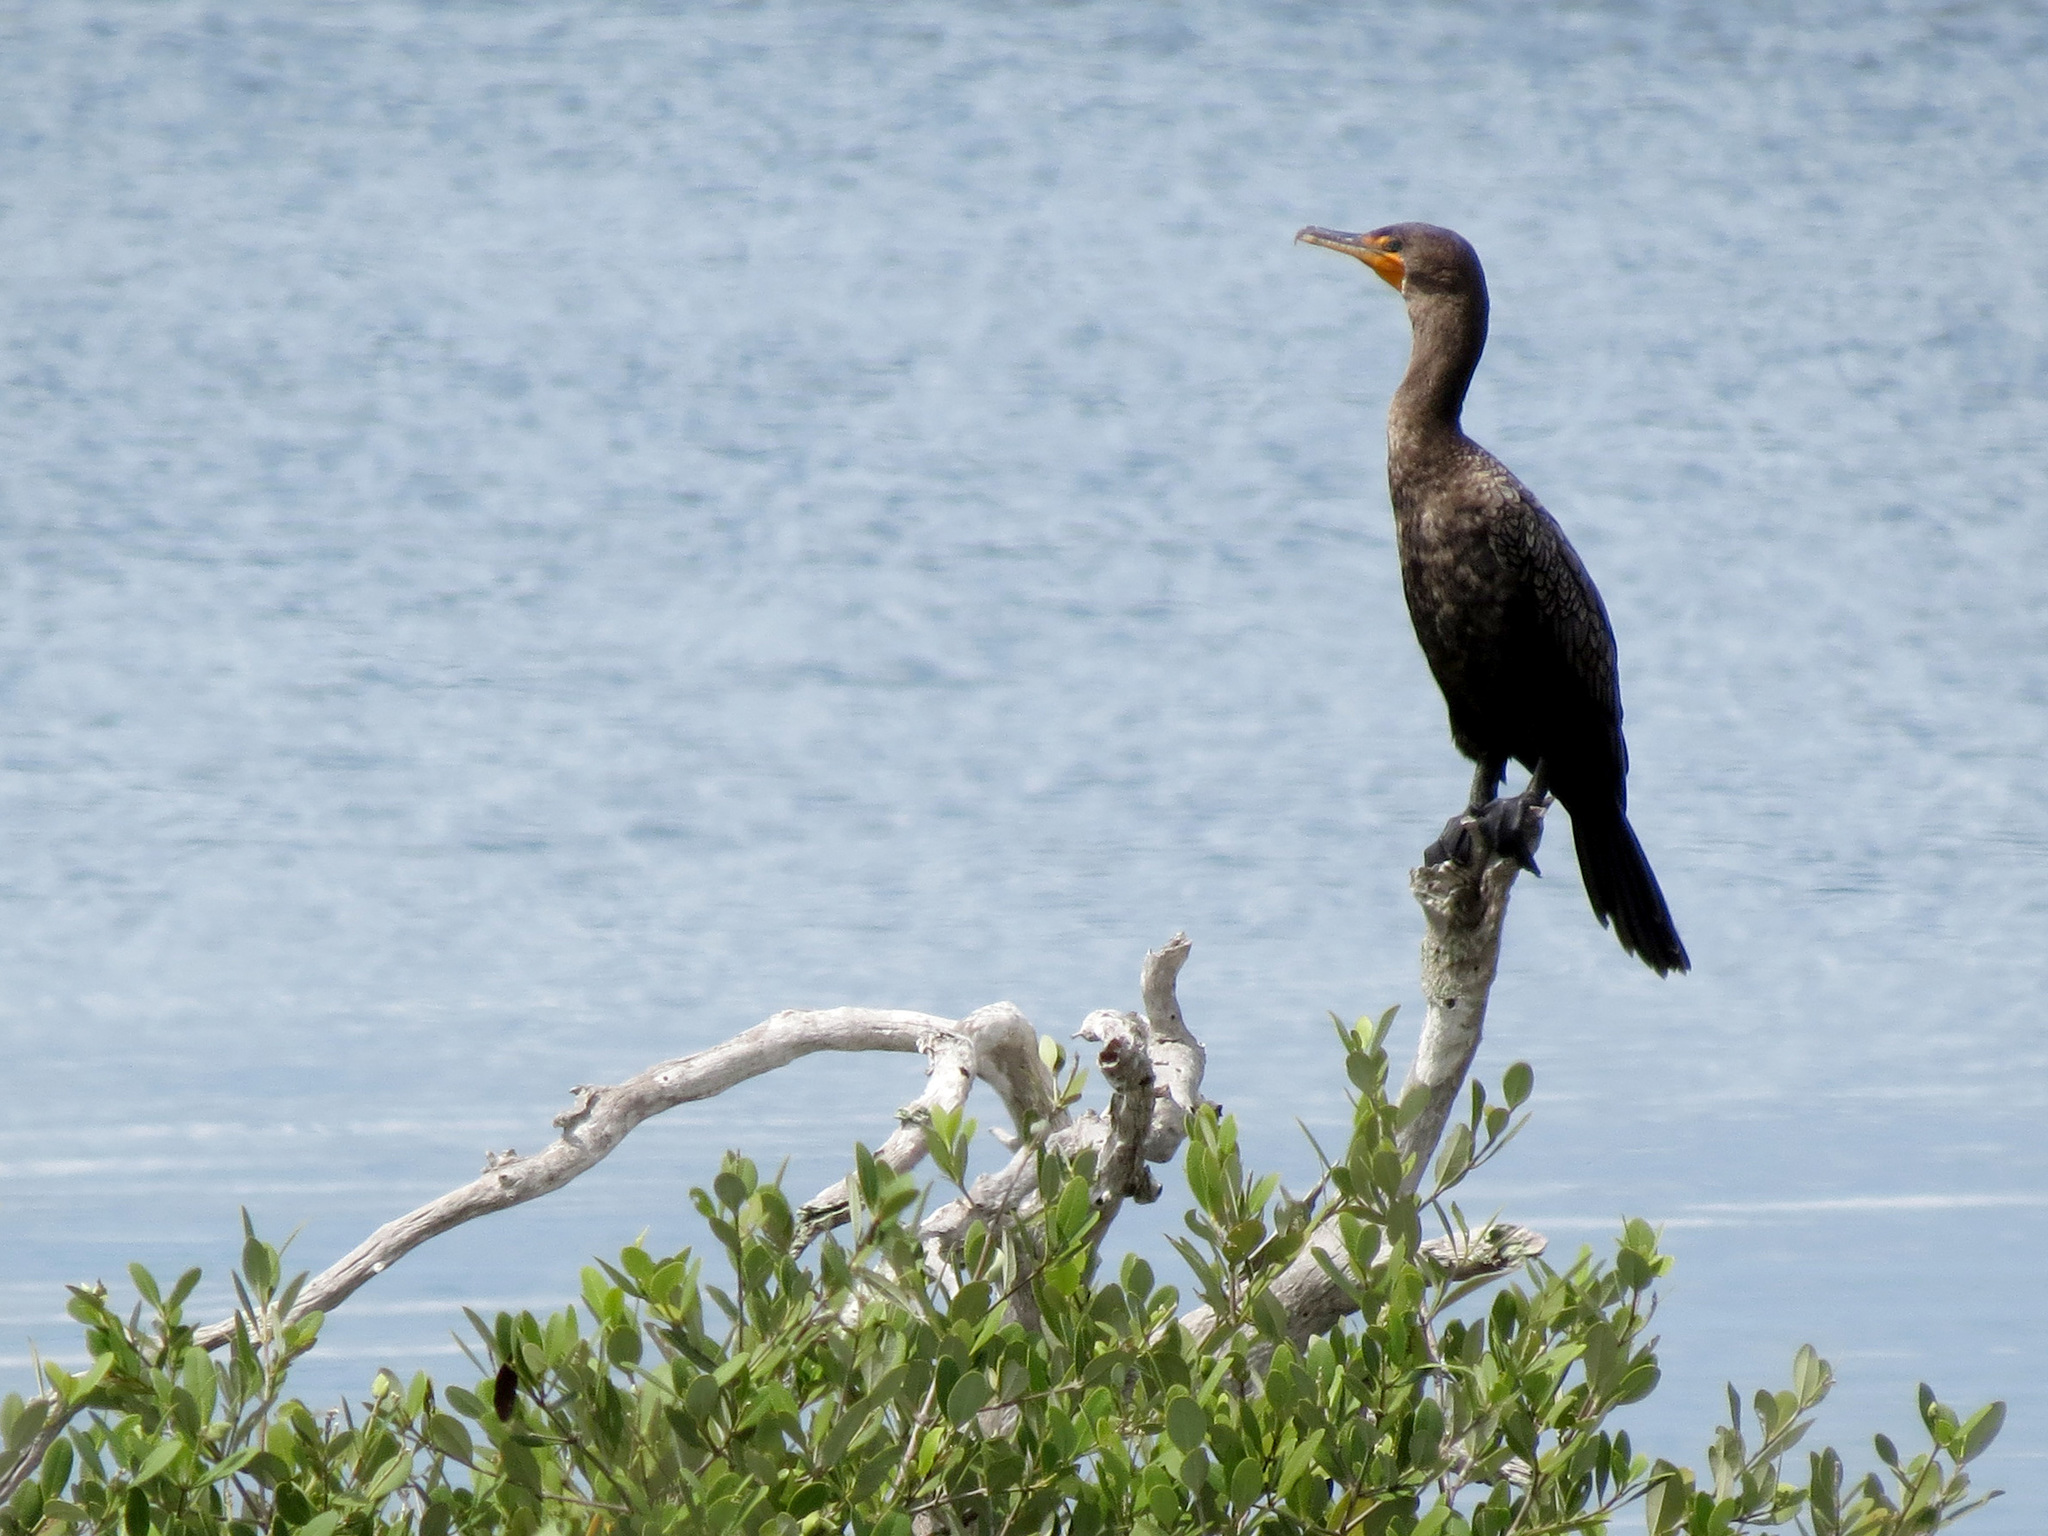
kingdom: Animalia
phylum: Chordata
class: Aves
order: Suliformes
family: Phalacrocoracidae
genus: Phalacrocorax
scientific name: Phalacrocorax auritus
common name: Double-crested cormorant
